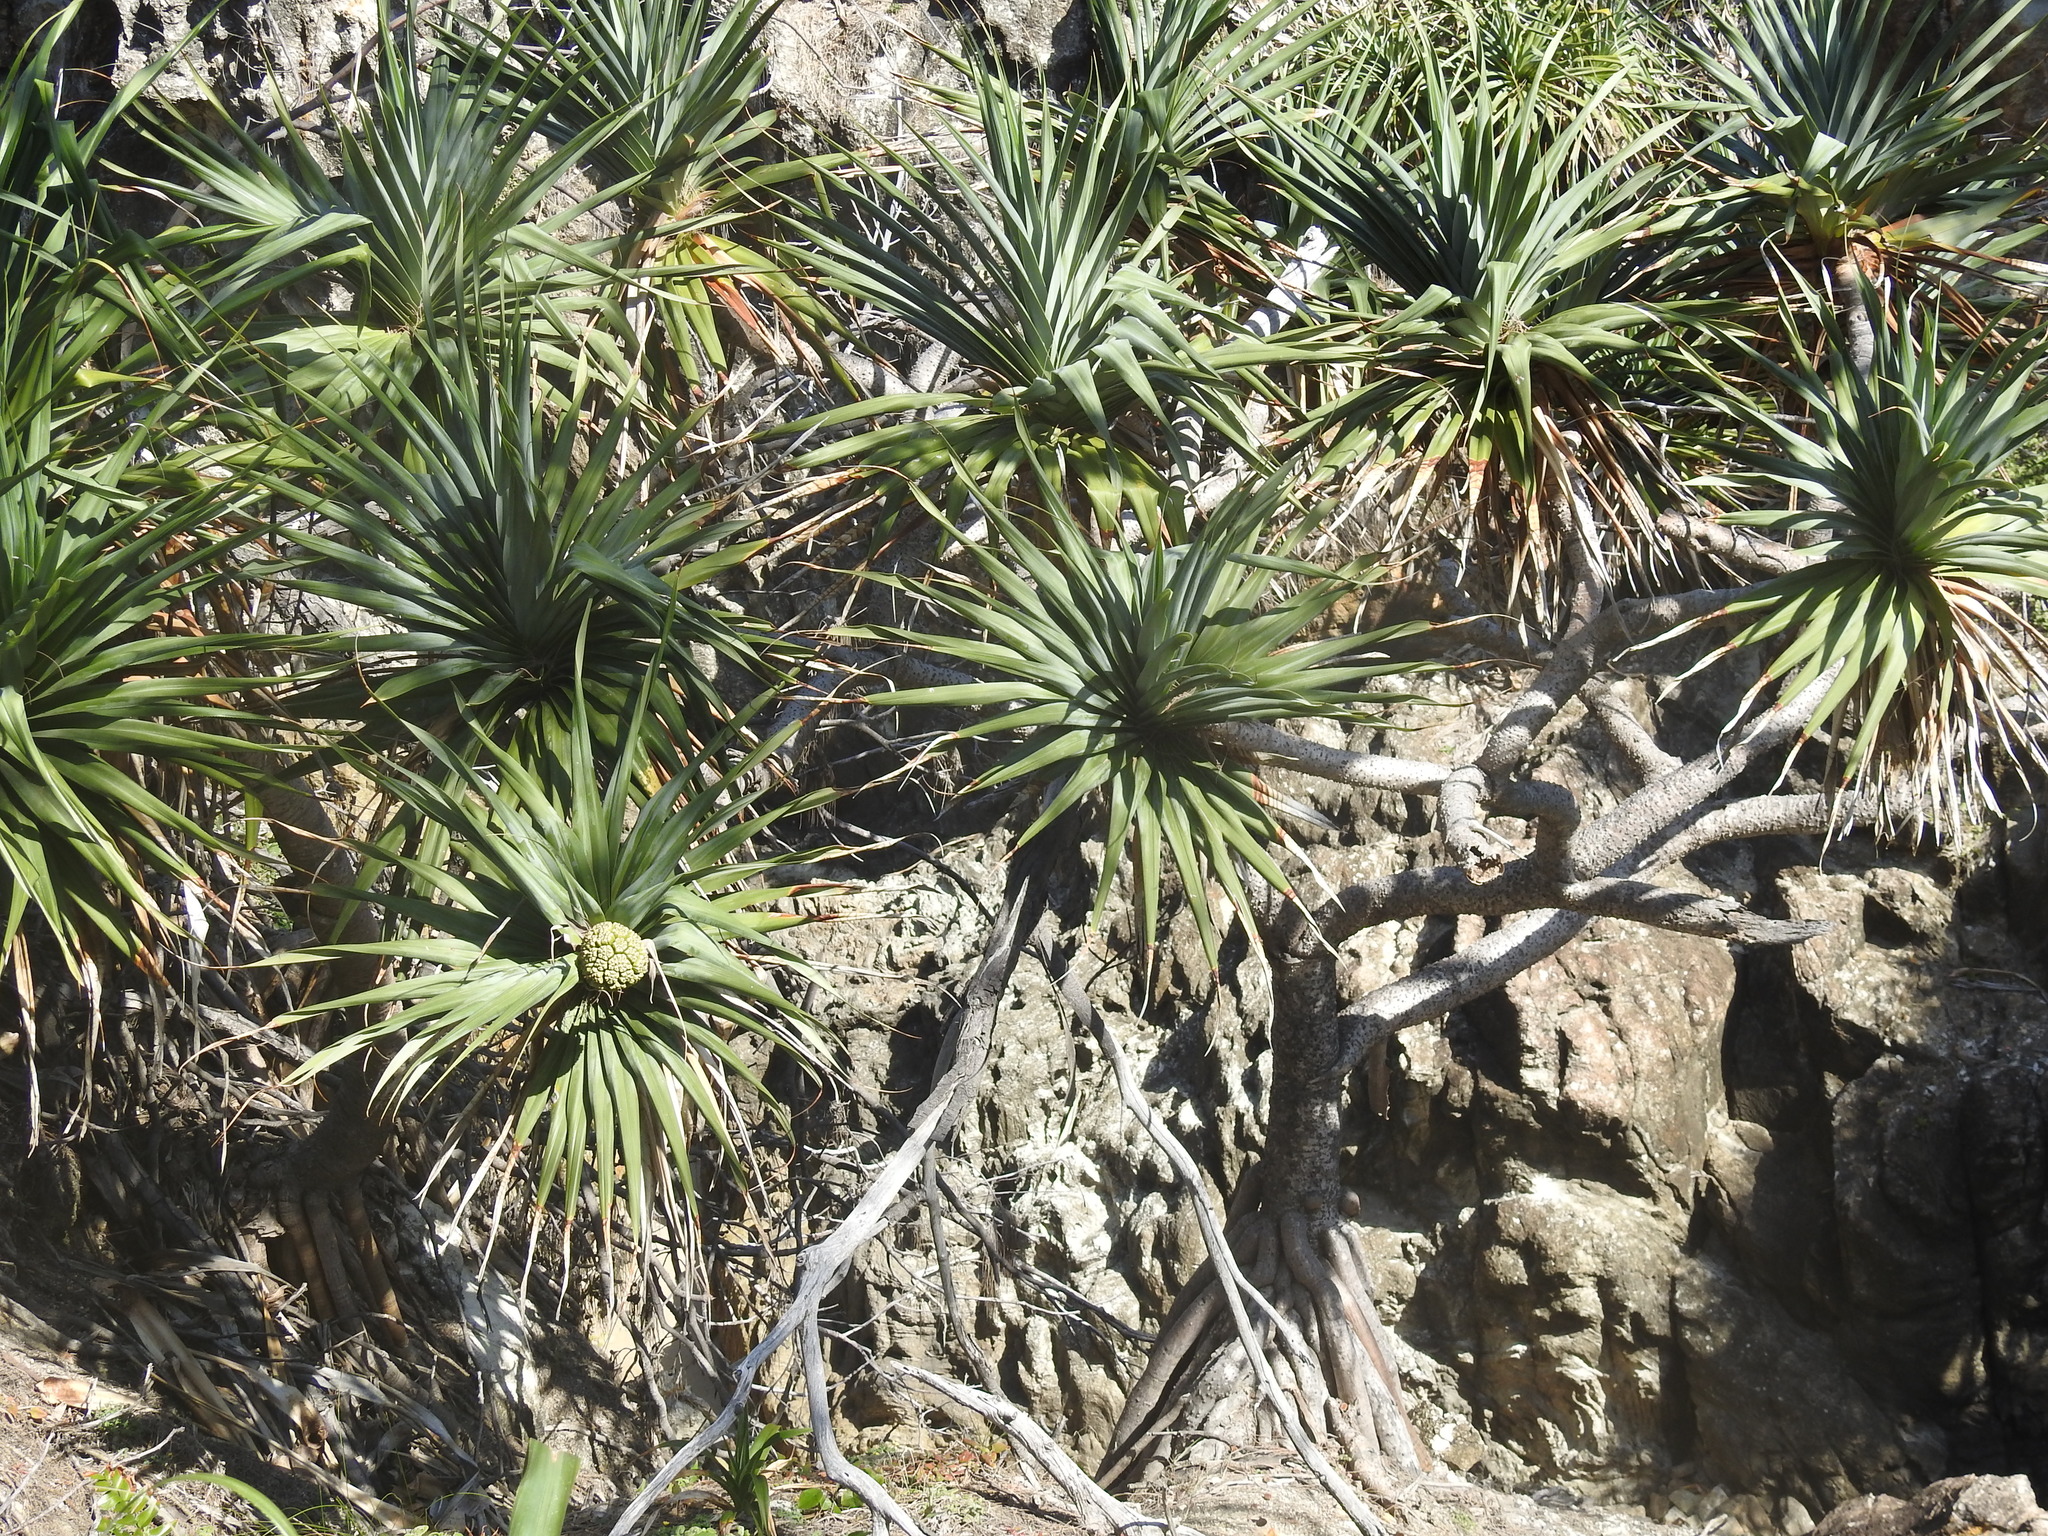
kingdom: Plantae
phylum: Tracheophyta
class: Liliopsida
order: Pandanales
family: Pandanaceae
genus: Pandanus
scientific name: Pandanus tectorius
